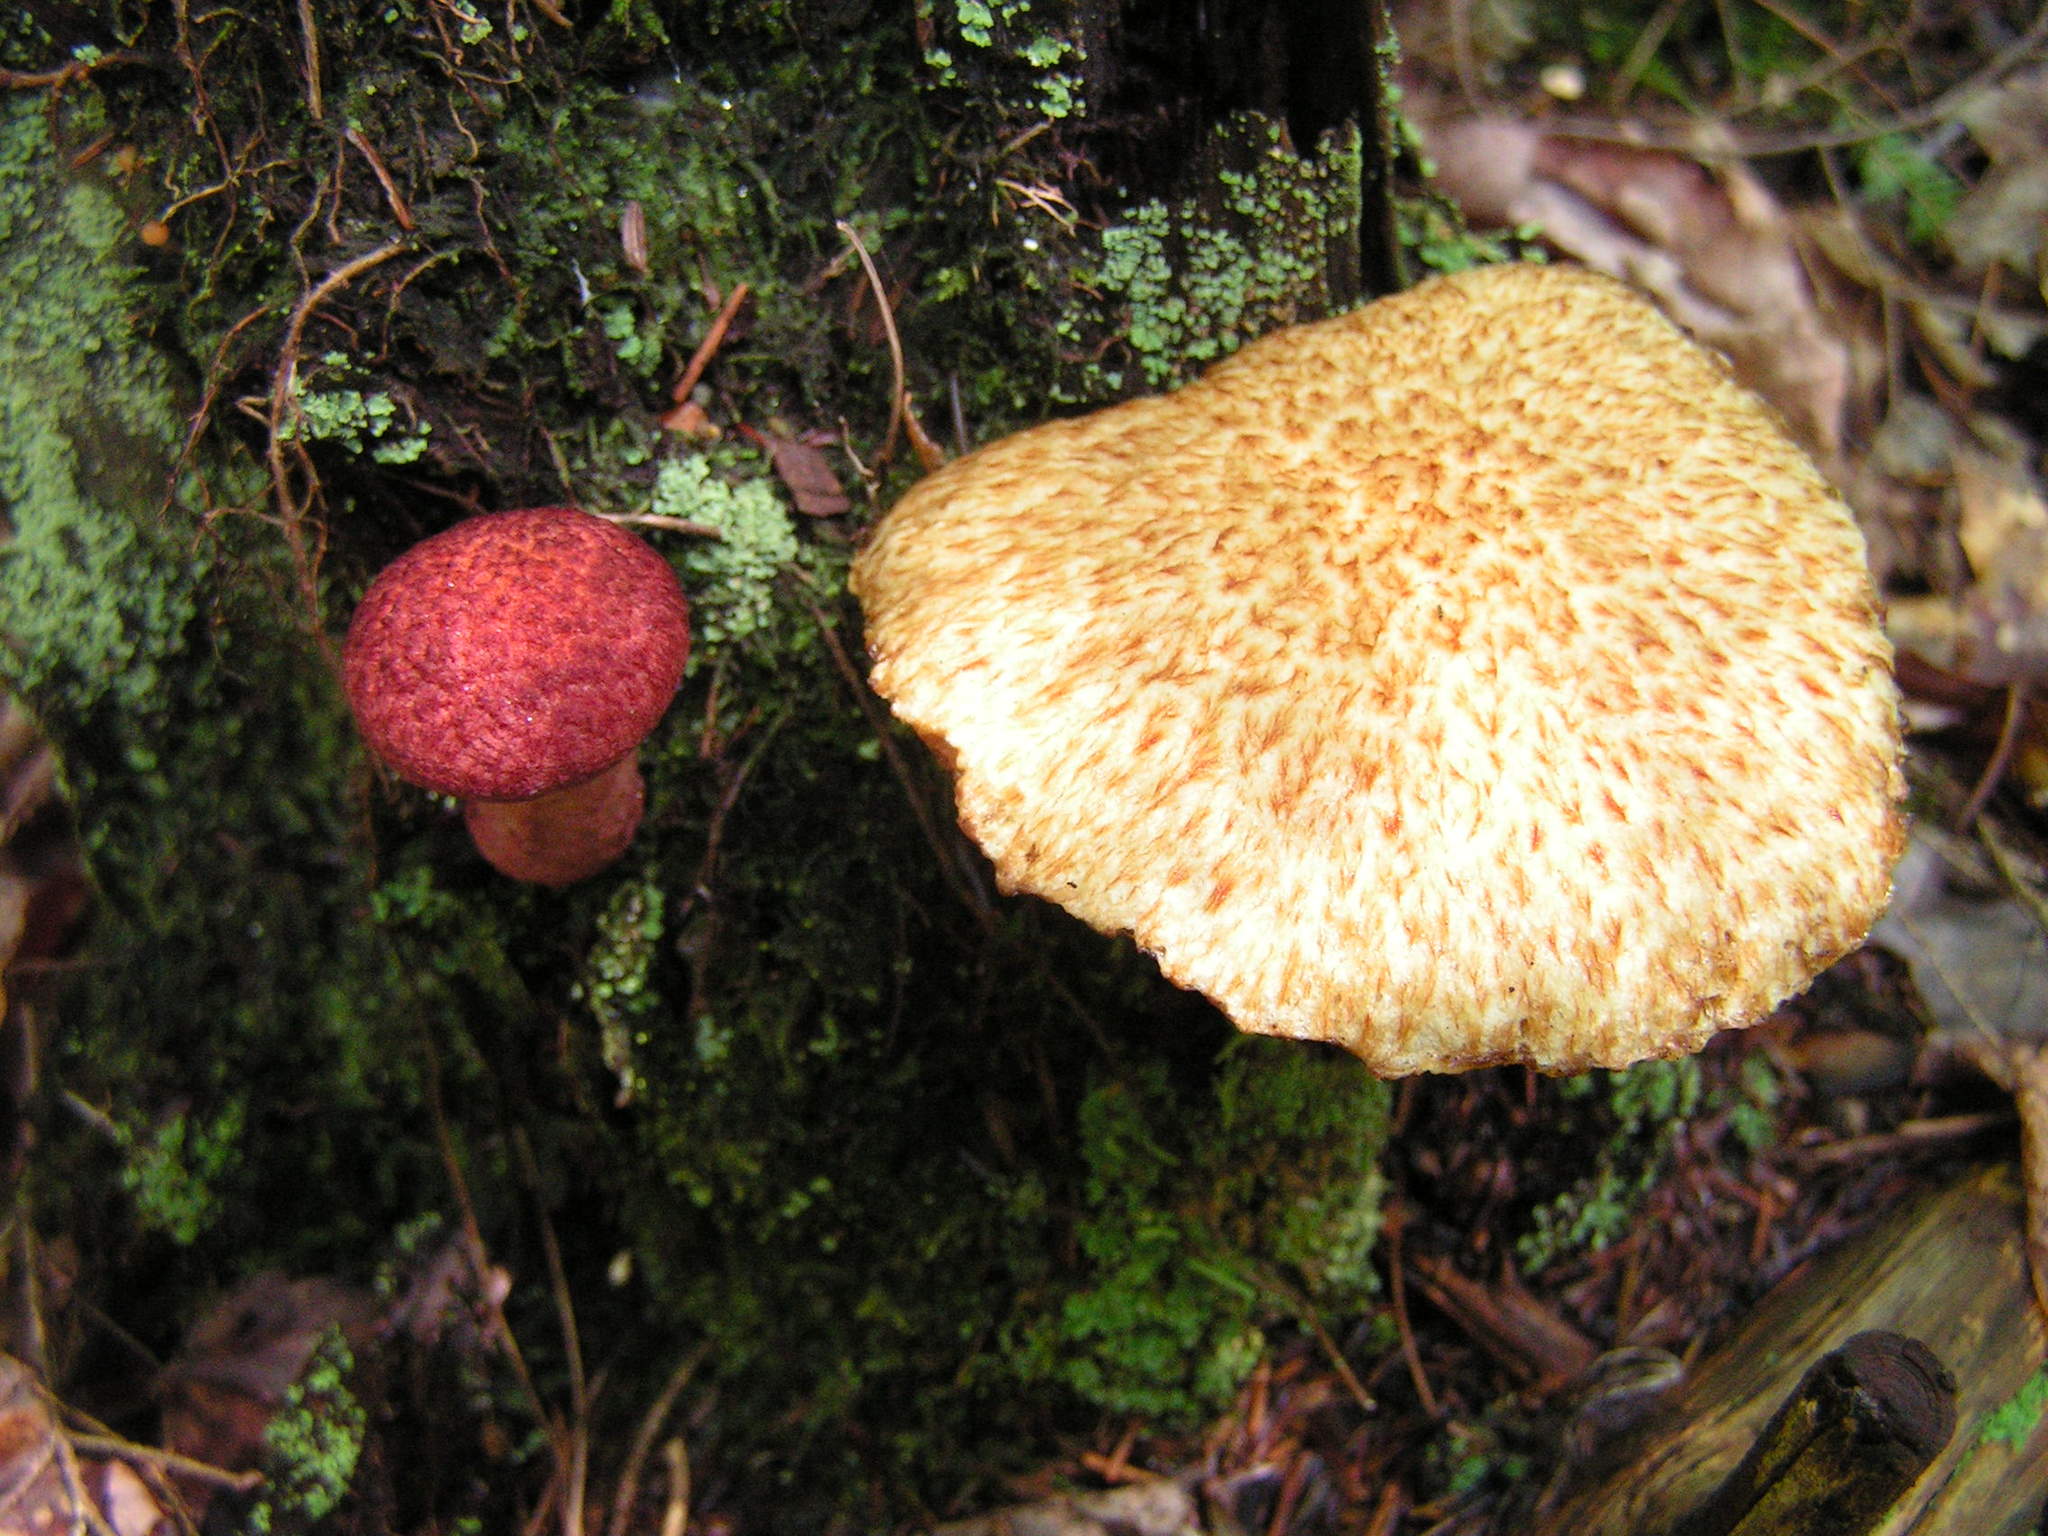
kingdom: Fungi
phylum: Basidiomycota
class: Agaricomycetes
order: Boletales
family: Suillaceae
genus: Suillus
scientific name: Suillus spraguei
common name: Painted suillus
